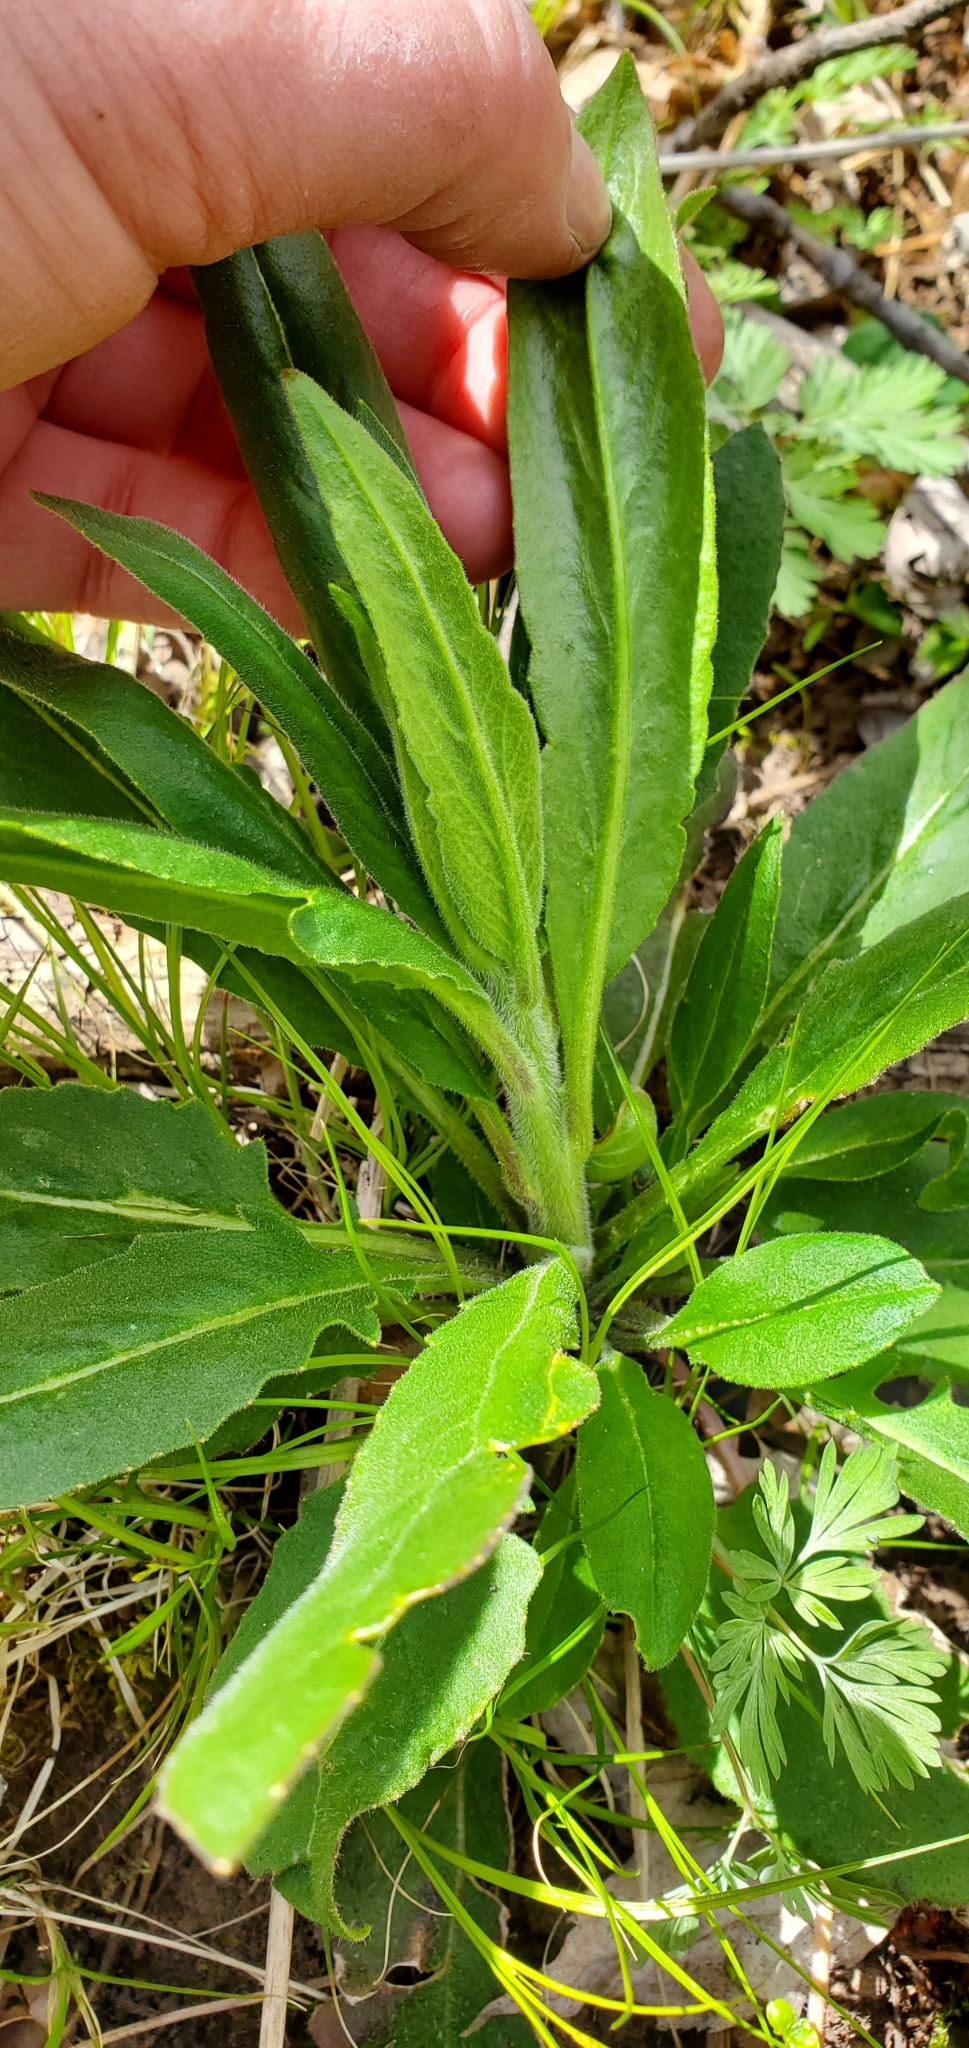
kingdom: Plantae
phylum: Tracheophyta
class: Magnoliopsida
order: Brassicales
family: Brassicaceae
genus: Hesperis
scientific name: Hesperis matronalis
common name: Dame's-violet
